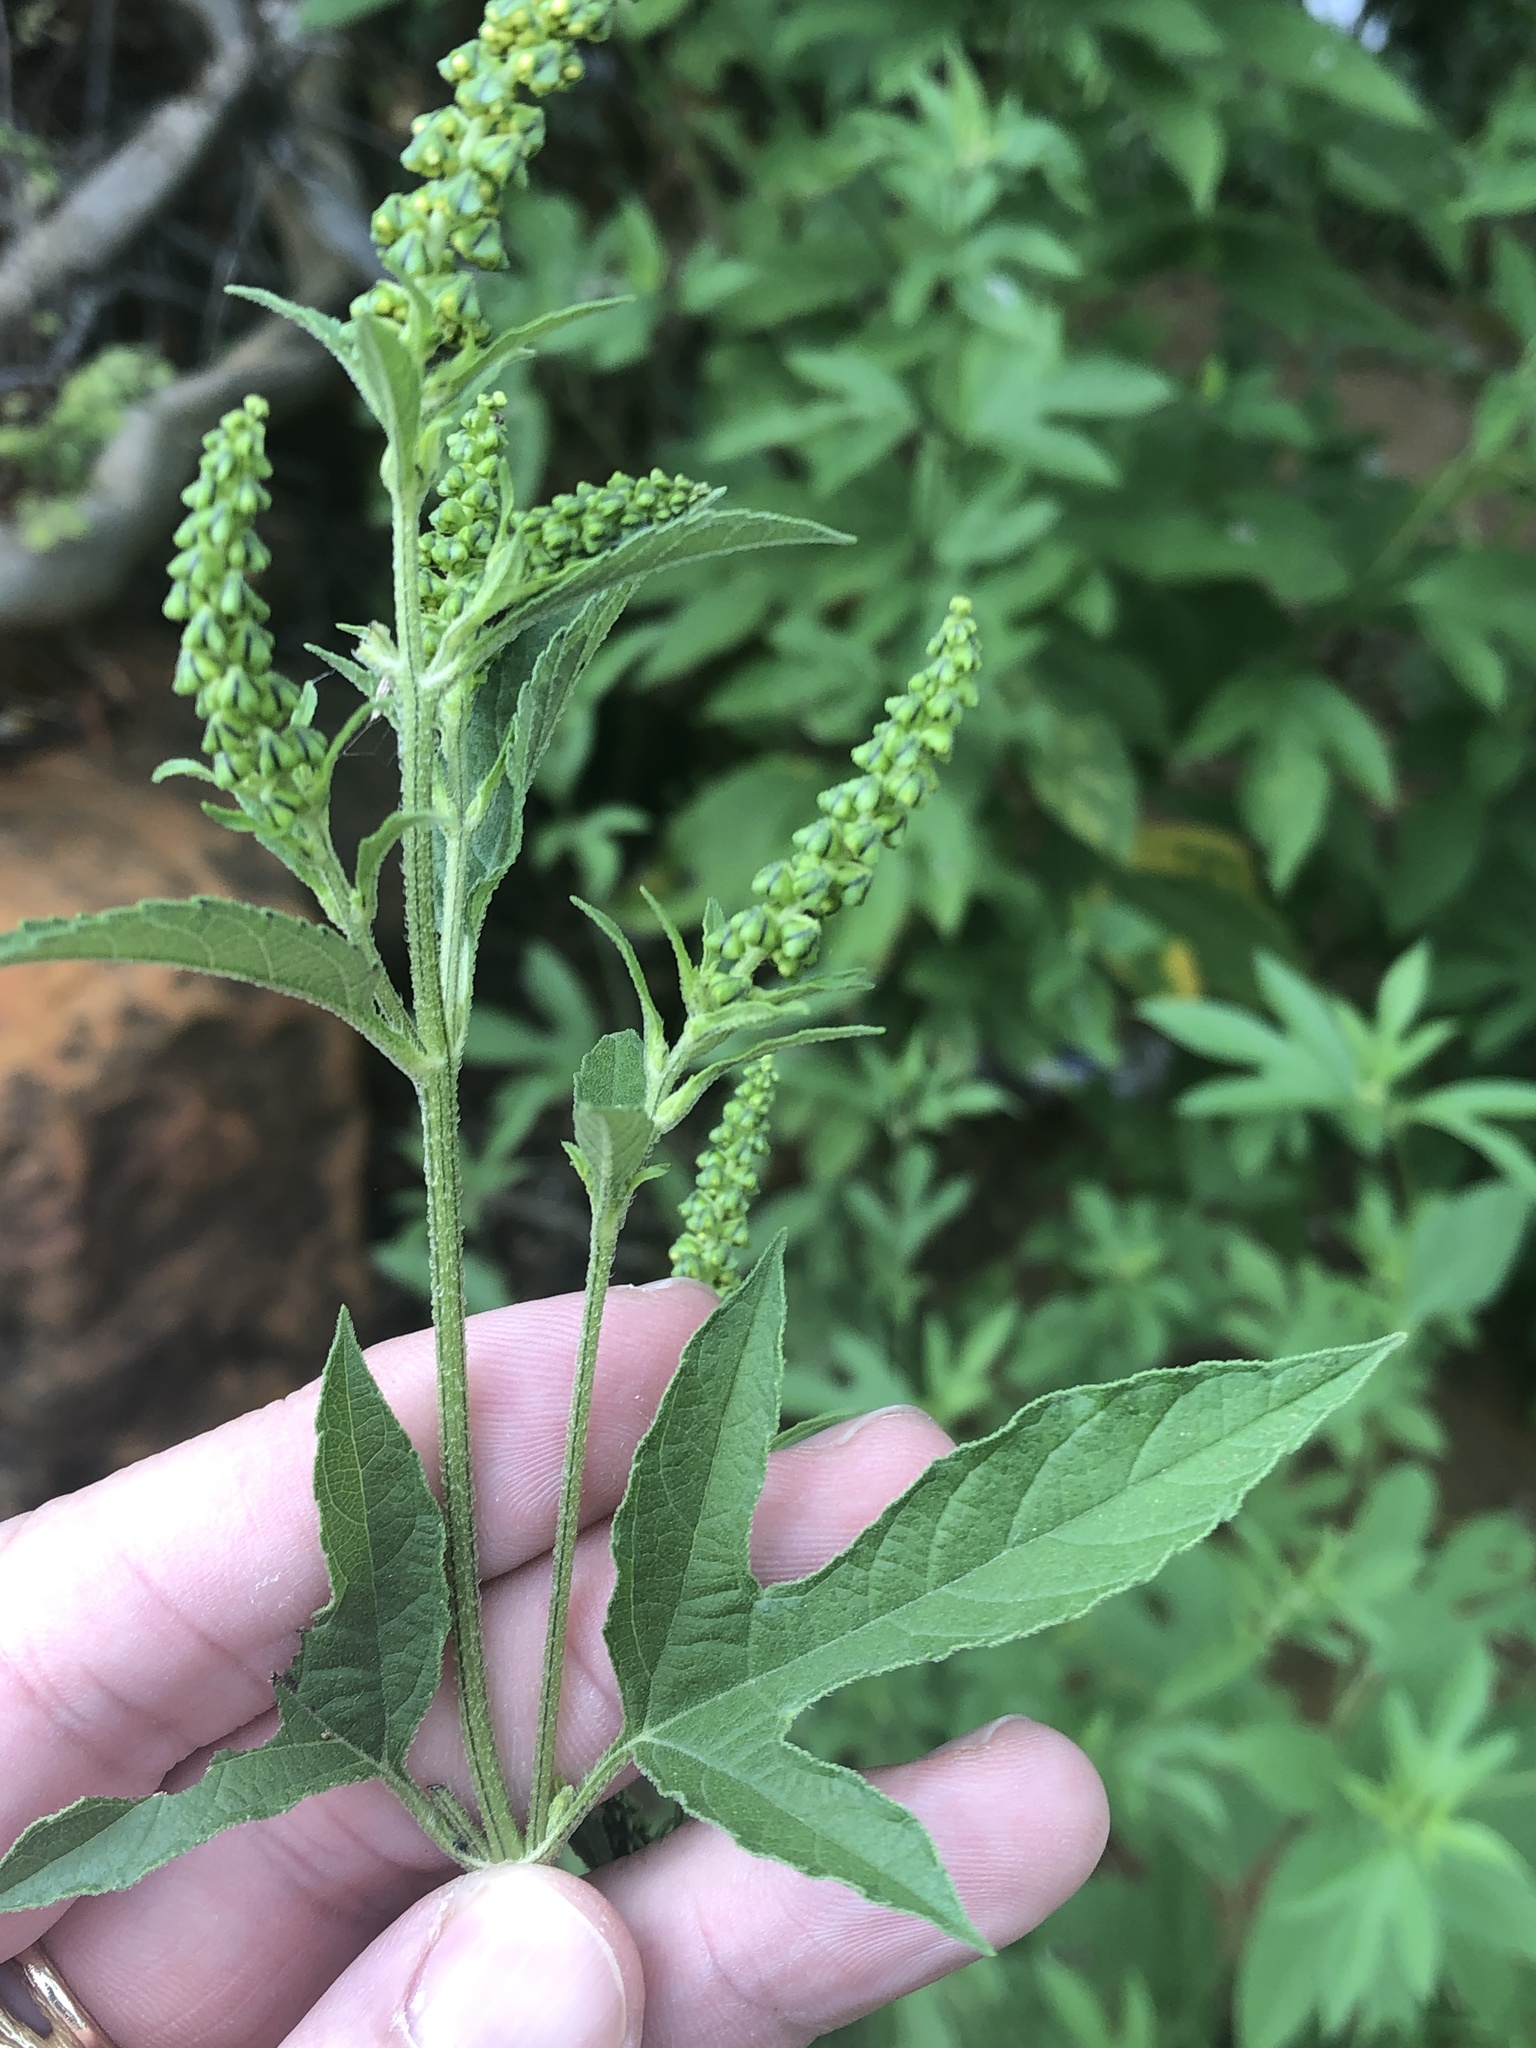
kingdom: Plantae
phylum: Tracheophyta
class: Magnoliopsida
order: Asterales
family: Asteraceae
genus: Ambrosia
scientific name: Ambrosia trifida
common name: Giant ragweed
